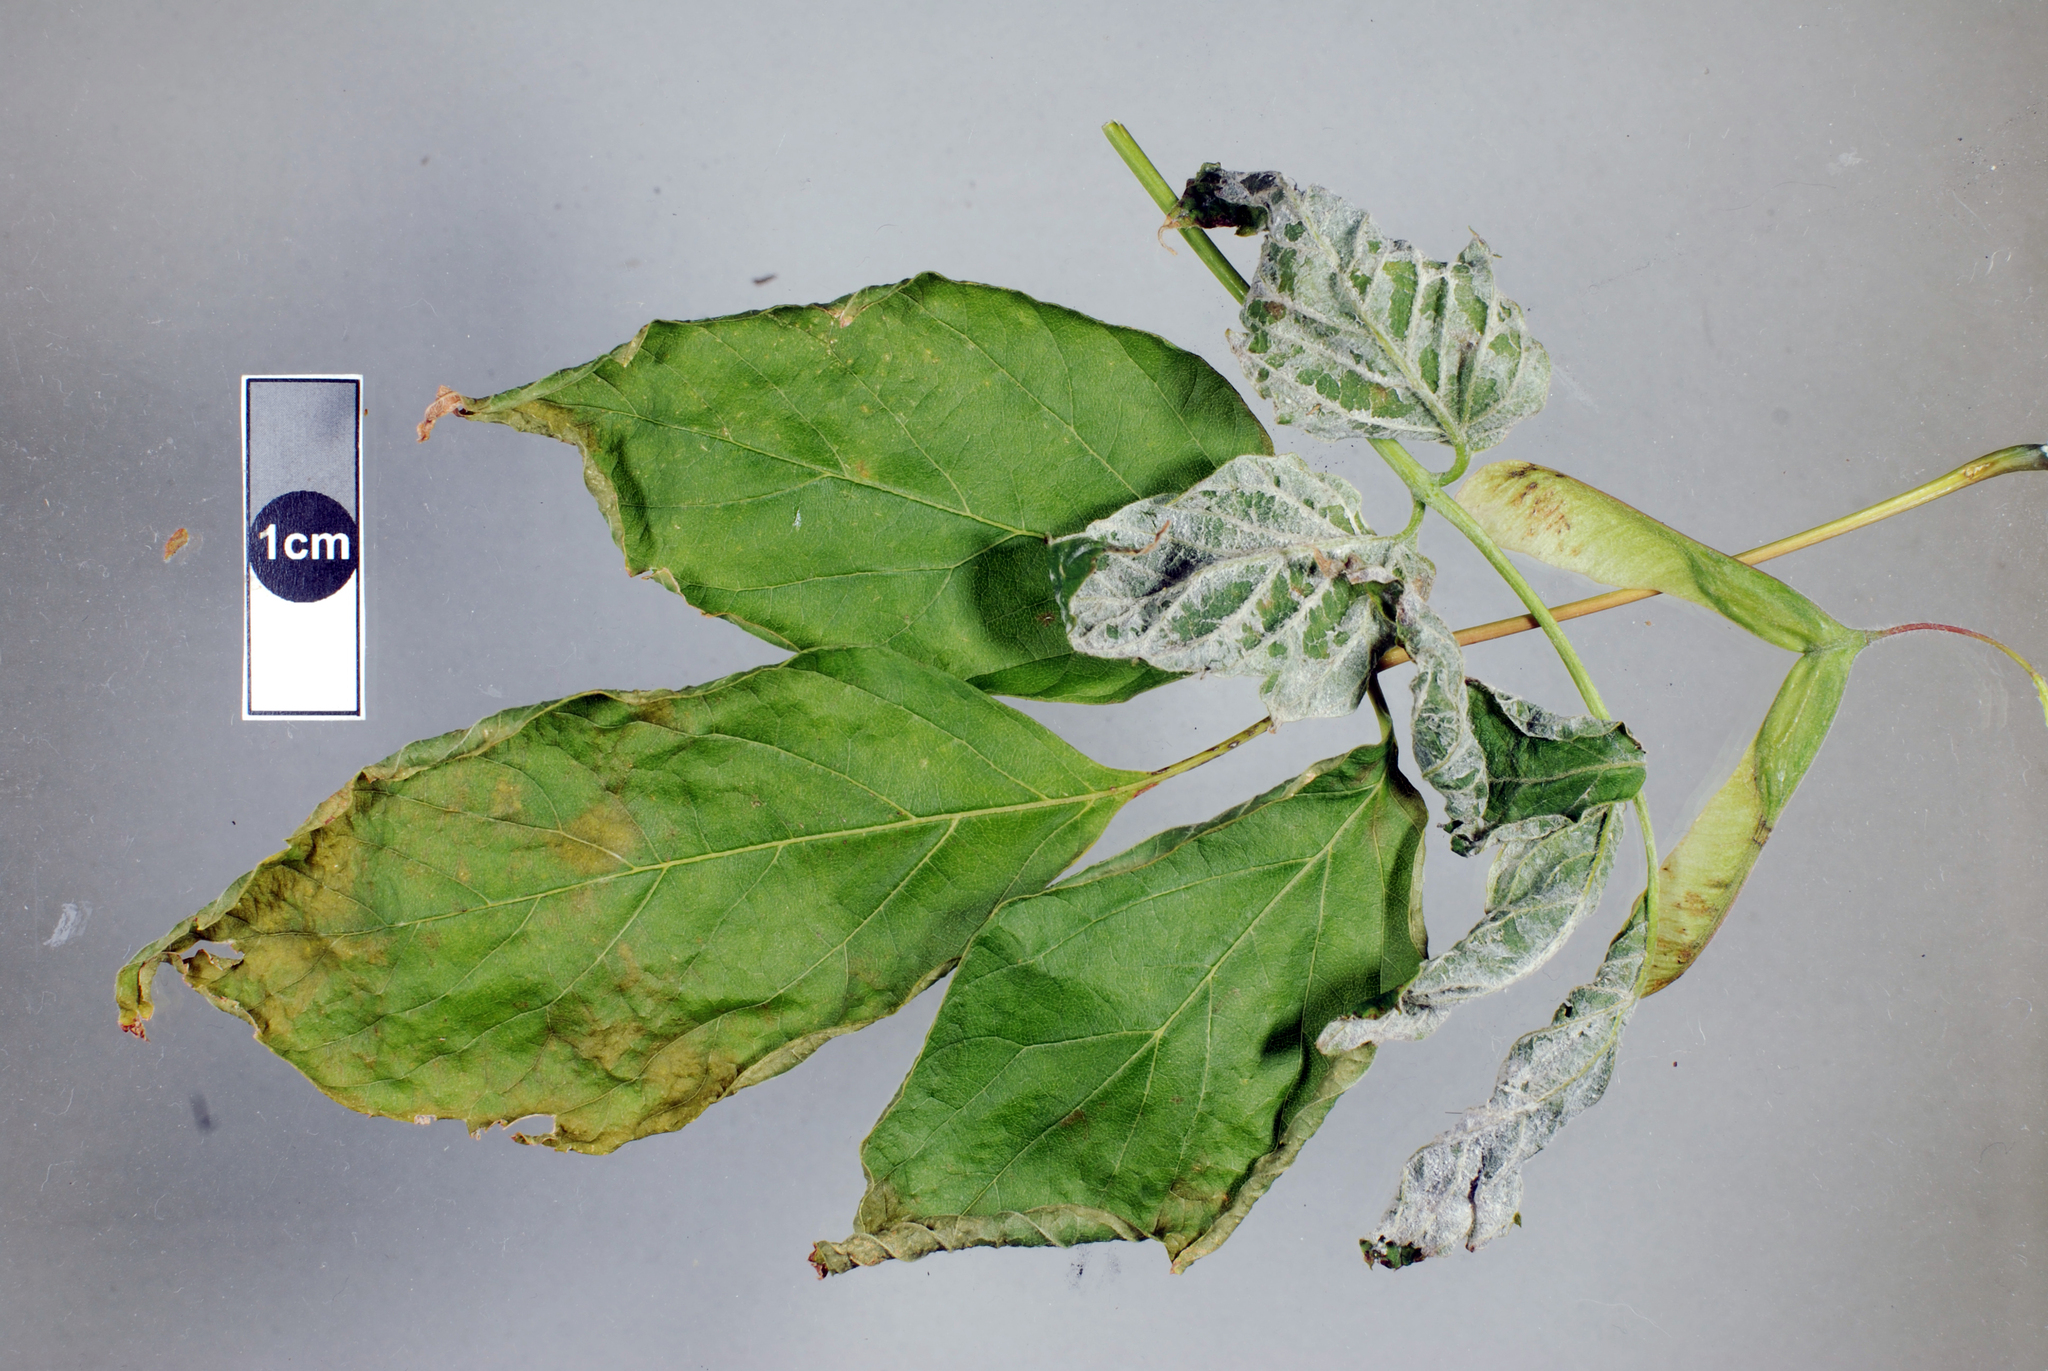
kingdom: Fungi
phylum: Ascomycota
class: Leotiomycetes
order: Helotiales
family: Erysiphaceae
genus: Sawadaea
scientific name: Sawadaea bicornis
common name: Maple mildew
